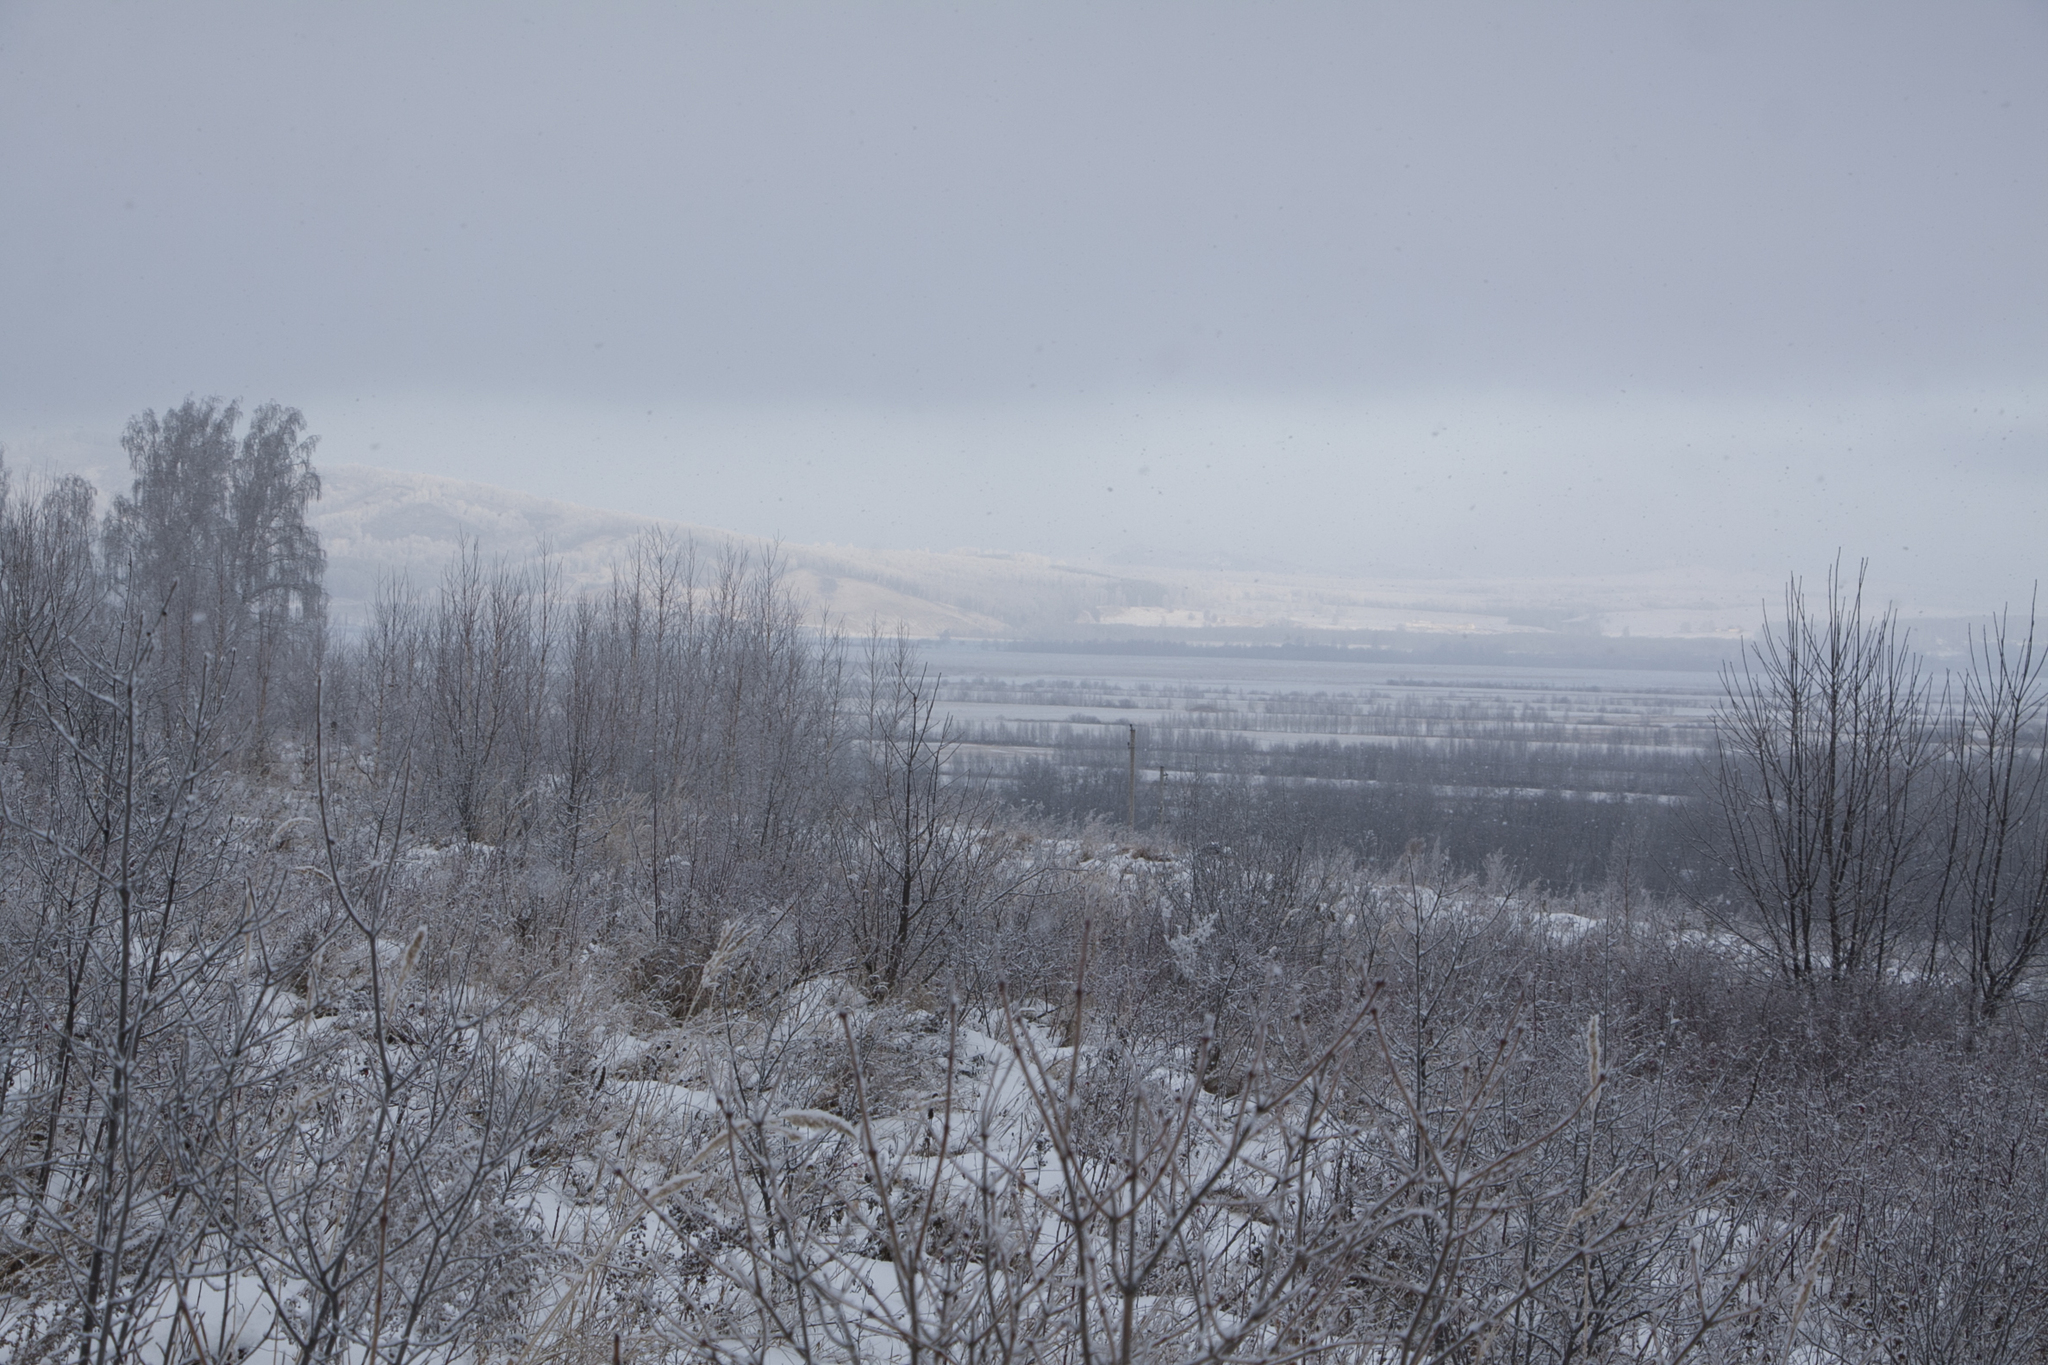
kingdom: Plantae
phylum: Tracheophyta
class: Magnoliopsida
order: Fagales
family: Betulaceae
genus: Betula
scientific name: Betula pendula
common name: Silver birch
